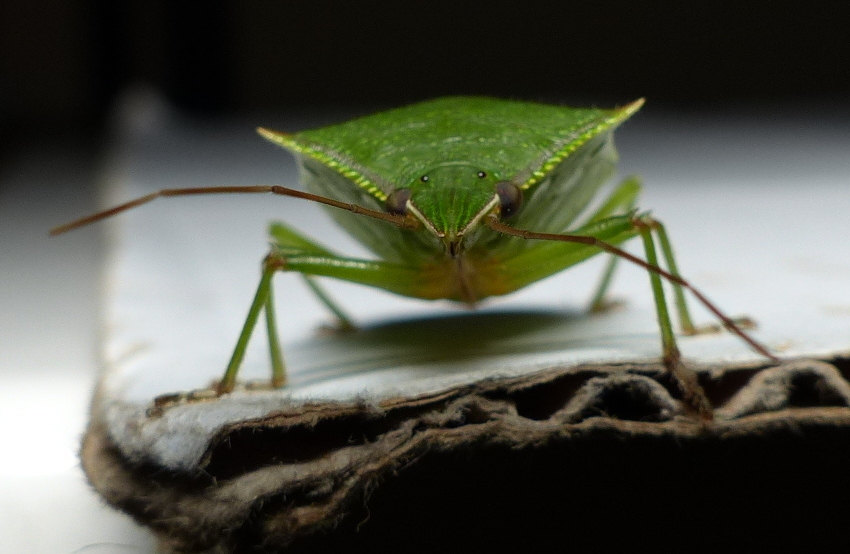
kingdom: Animalia
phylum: Arthropoda
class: Insecta
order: Hemiptera
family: Pentatomidae
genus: Loxa
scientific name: Loxa virescens
